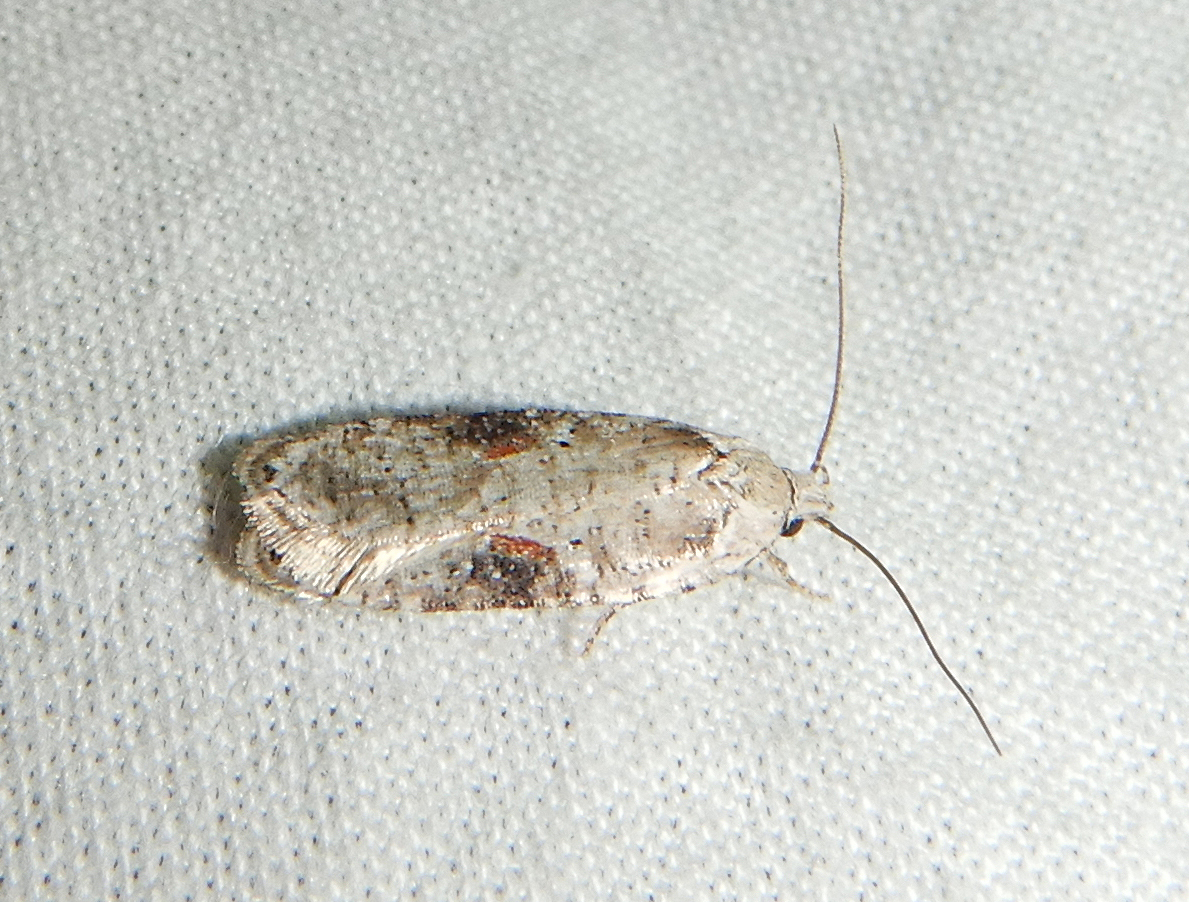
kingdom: Animalia
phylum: Arthropoda
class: Insecta
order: Lepidoptera
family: Depressariidae
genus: Agonopterix
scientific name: Agonopterix alstroemeriana
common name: Moth
